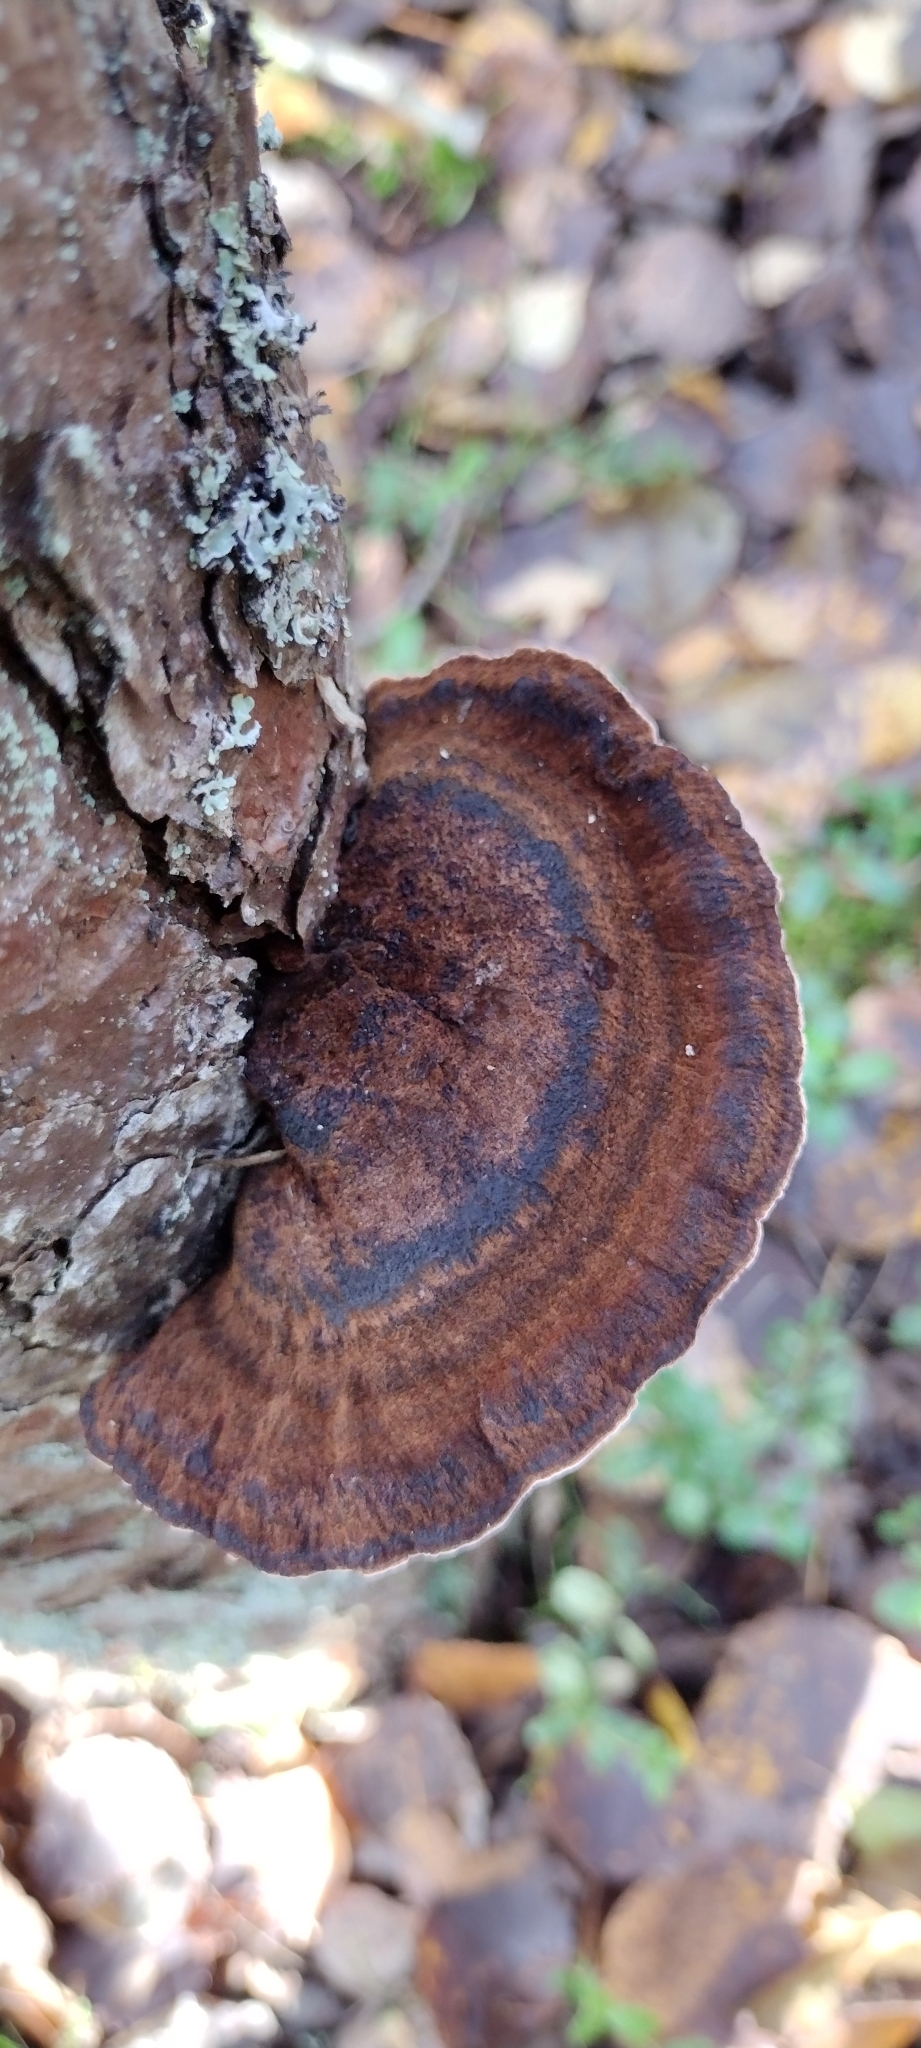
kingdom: Fungi
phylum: Basidiomycota
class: Agaricomycetes
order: Polyporales
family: Ischnodermataceae
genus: Ischnoderma
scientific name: Ischnoderma benzoinum
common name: Benzoin bracket
